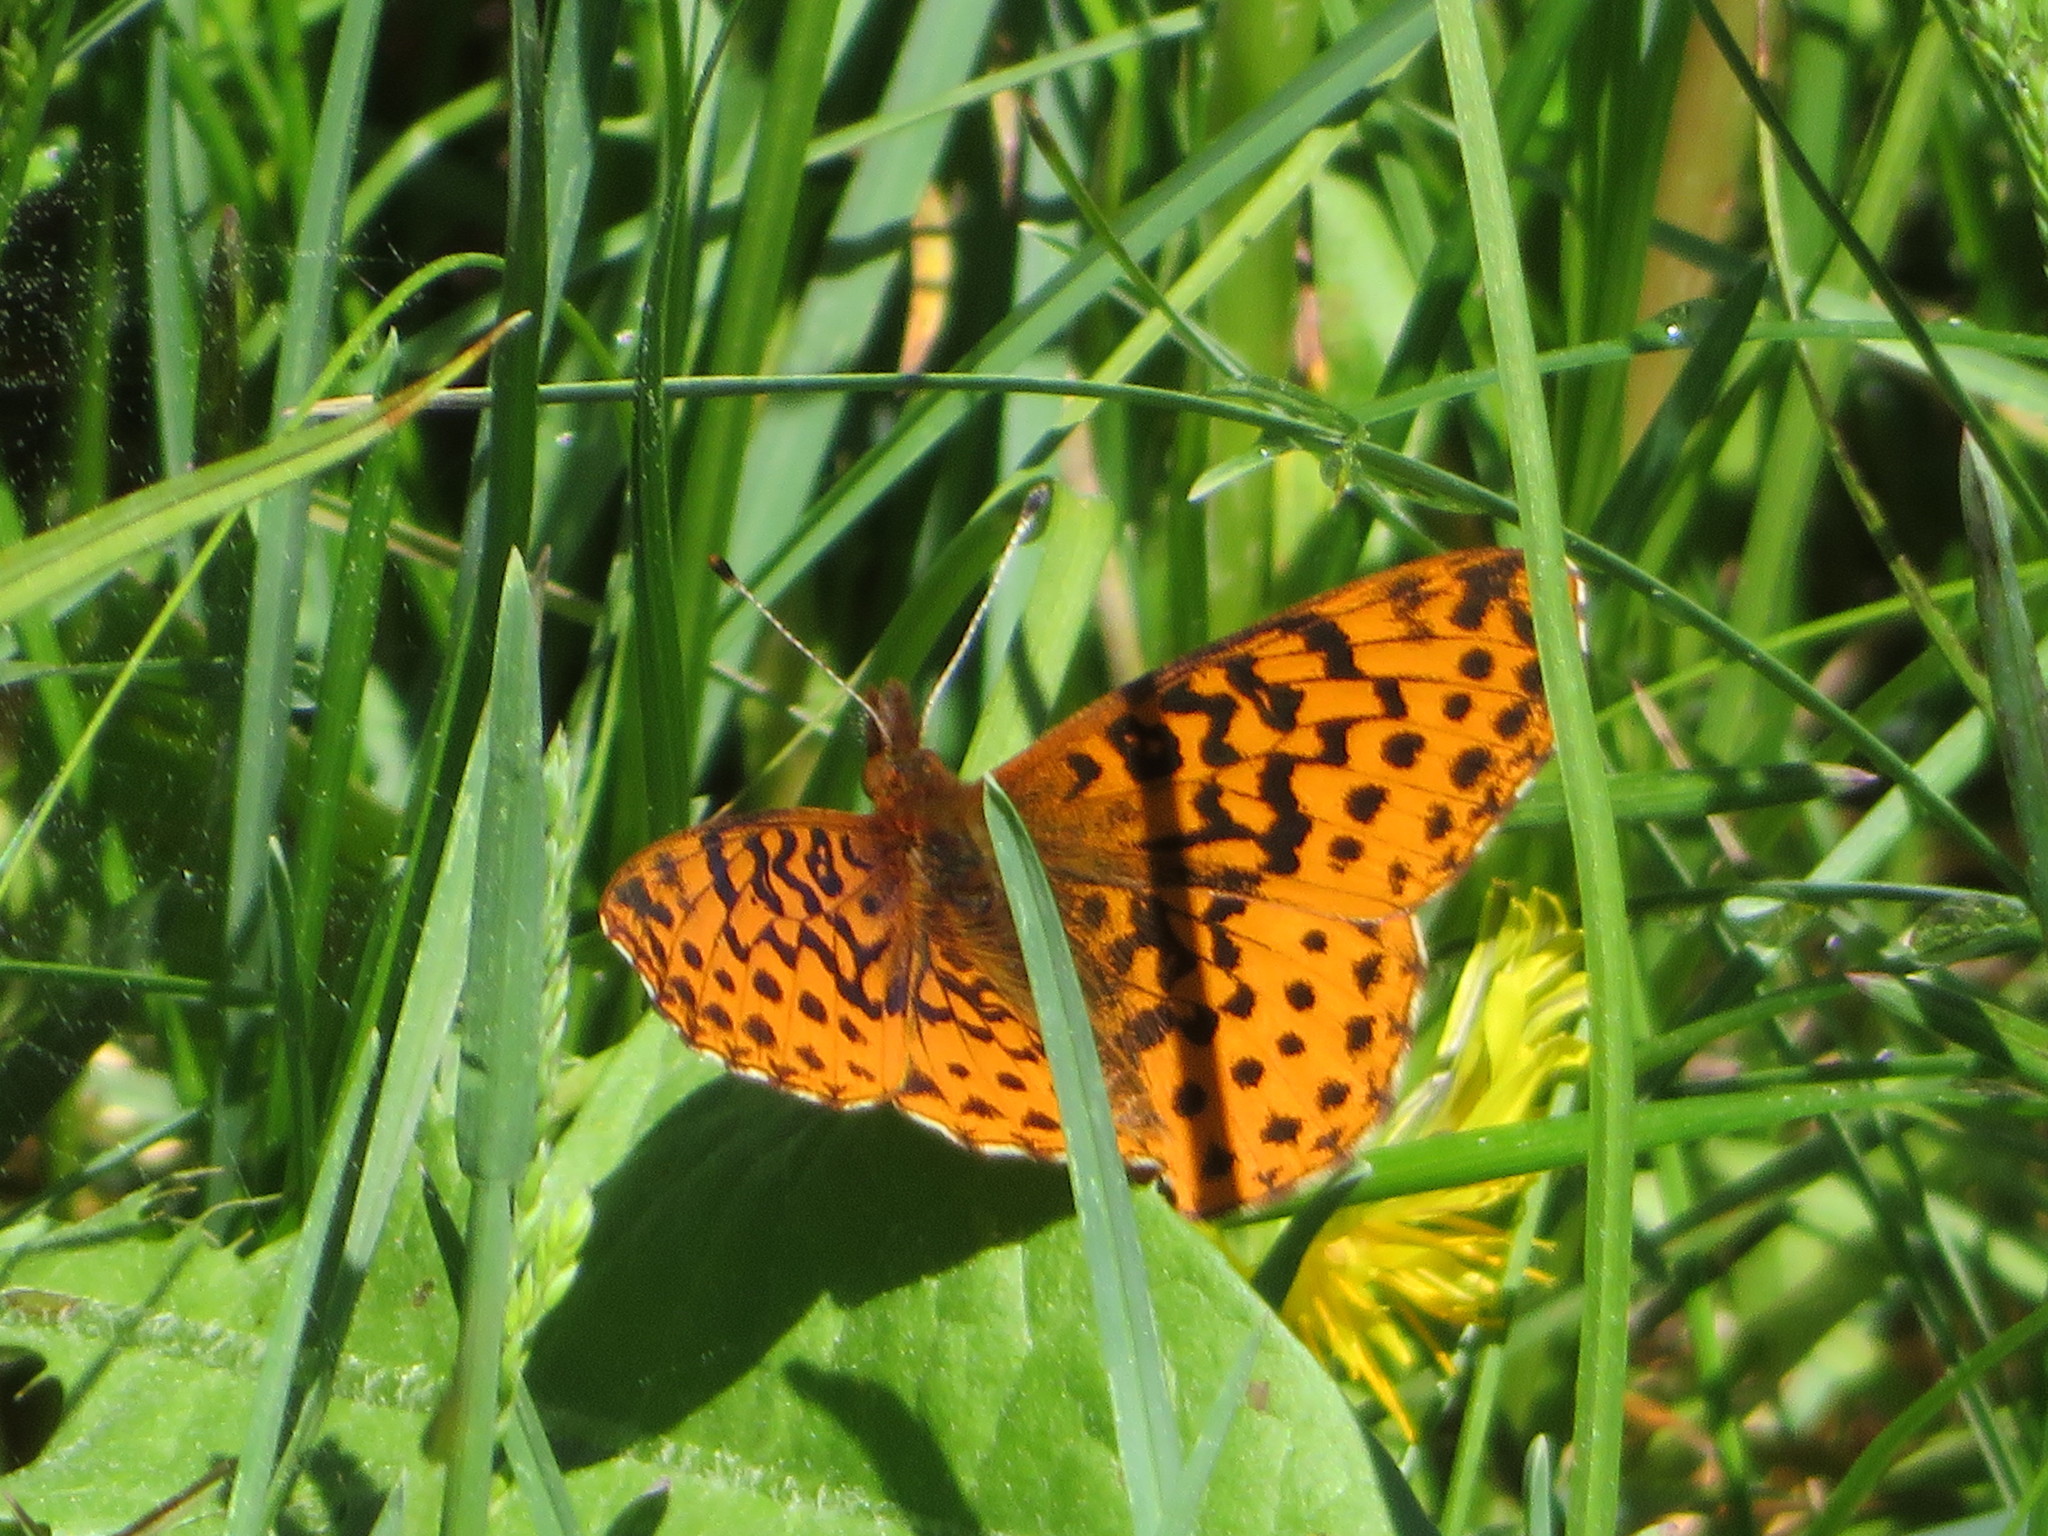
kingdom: Animalia
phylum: Arthropoda
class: Insecta
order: Lepidoptera
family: Nymphalidae
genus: Clossiana
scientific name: Clossiana toddi
